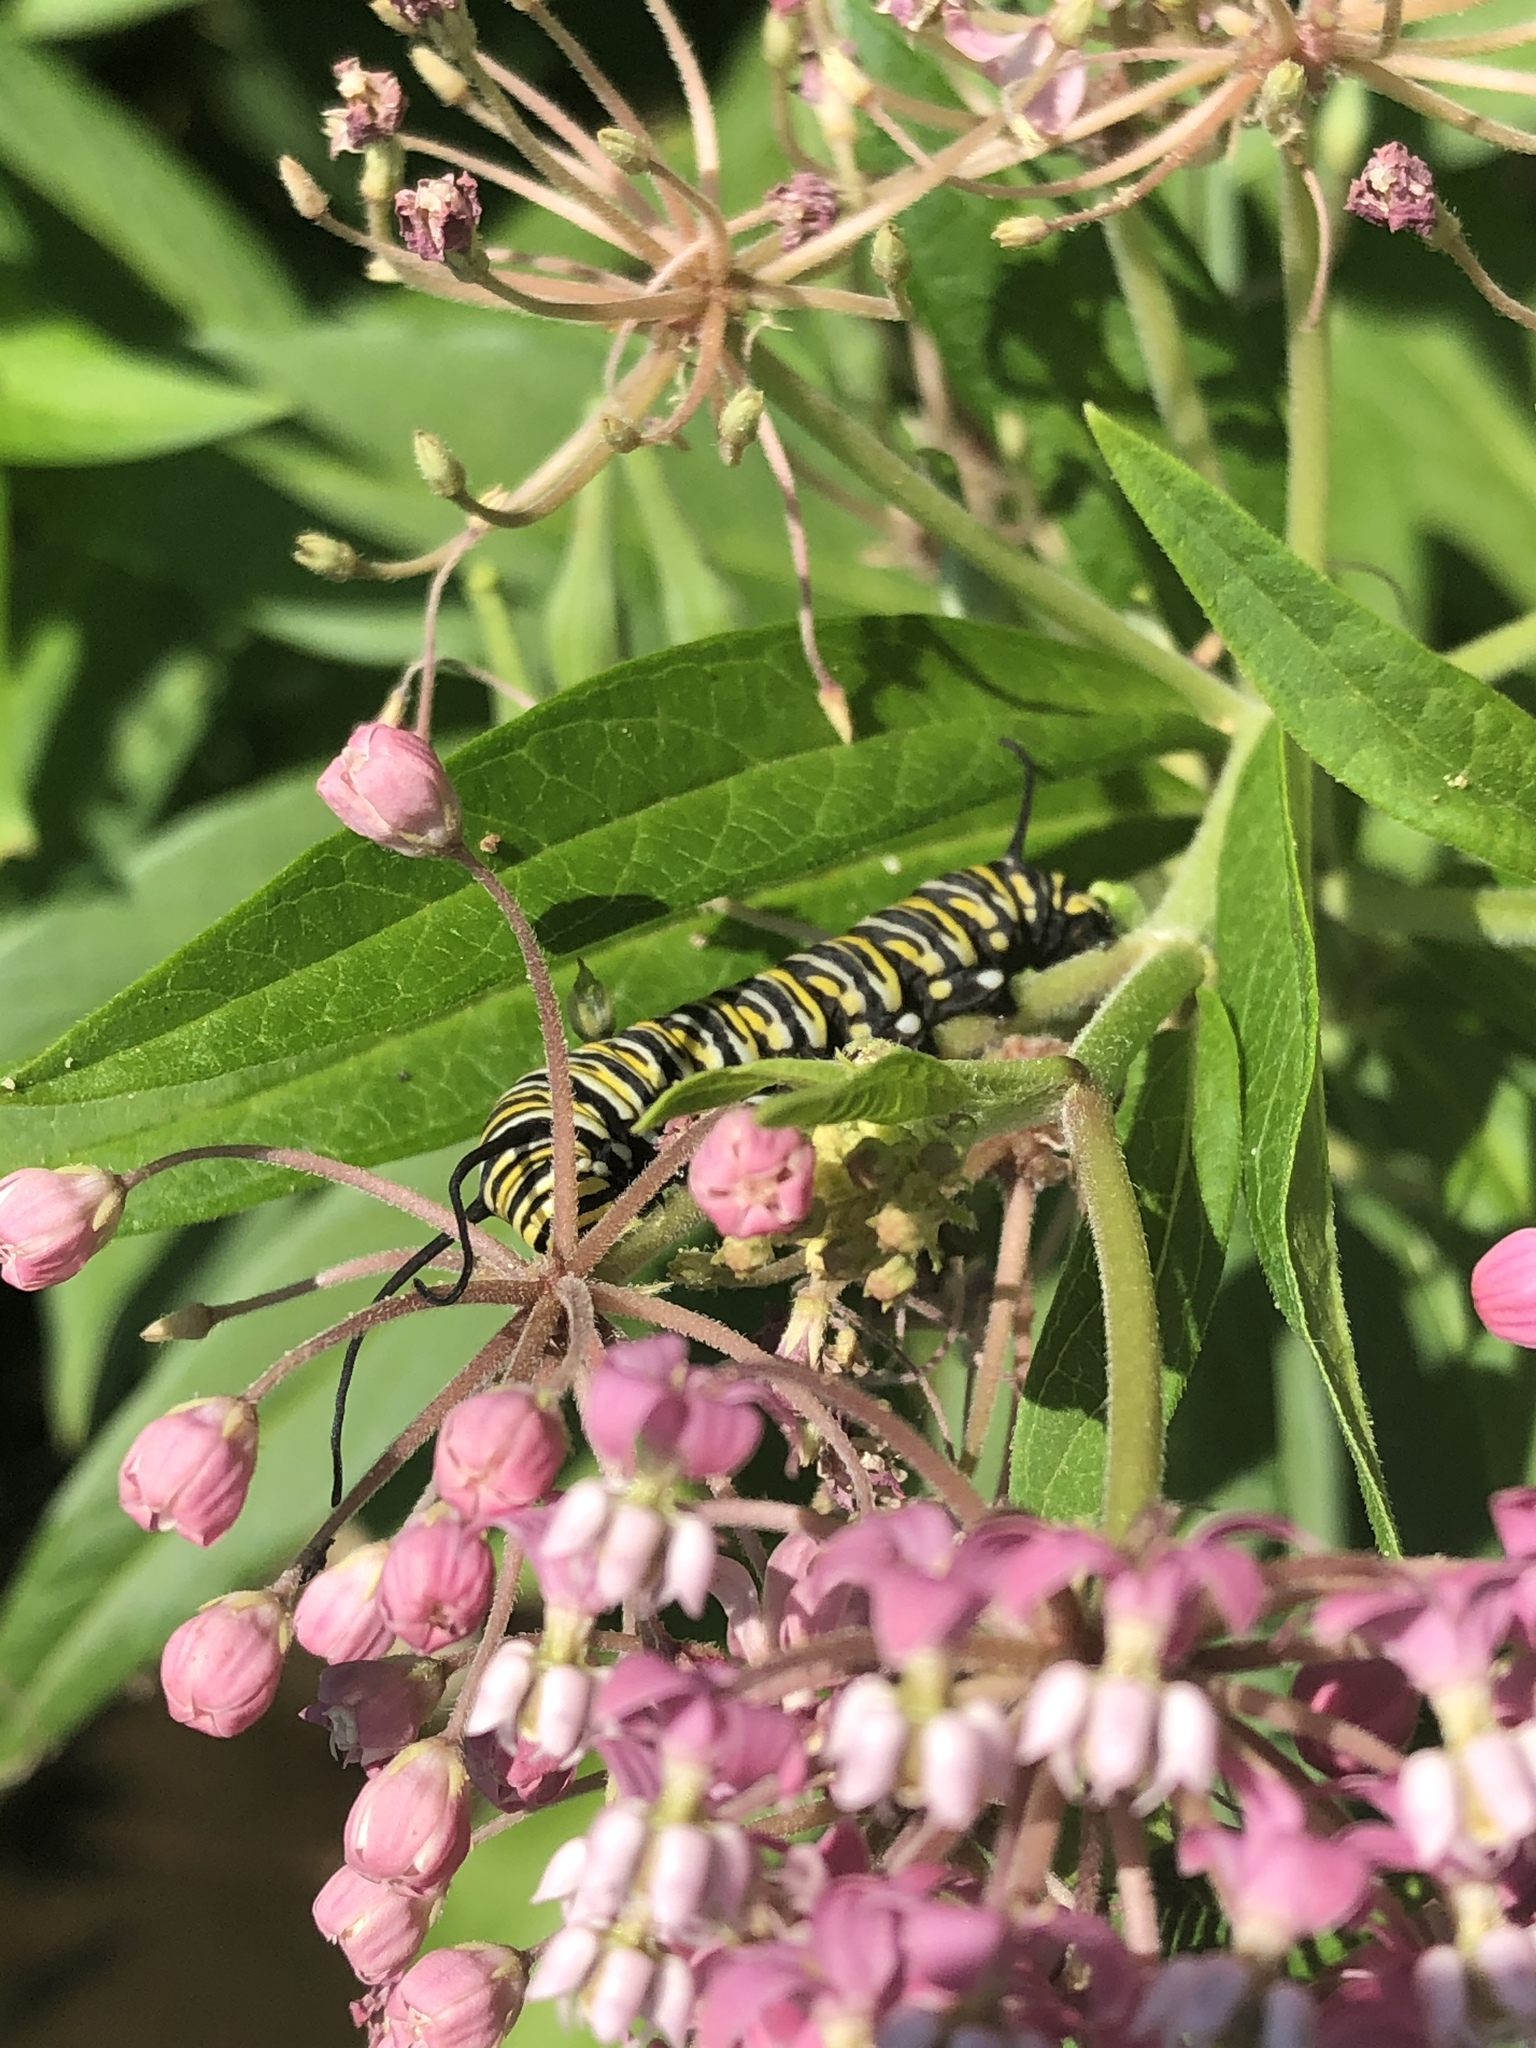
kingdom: Animalia
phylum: Arthropoda
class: Insecta
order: Lepidoptera
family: Nymphalidae
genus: Danaus
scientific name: Danaus plexippus
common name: Monarch
